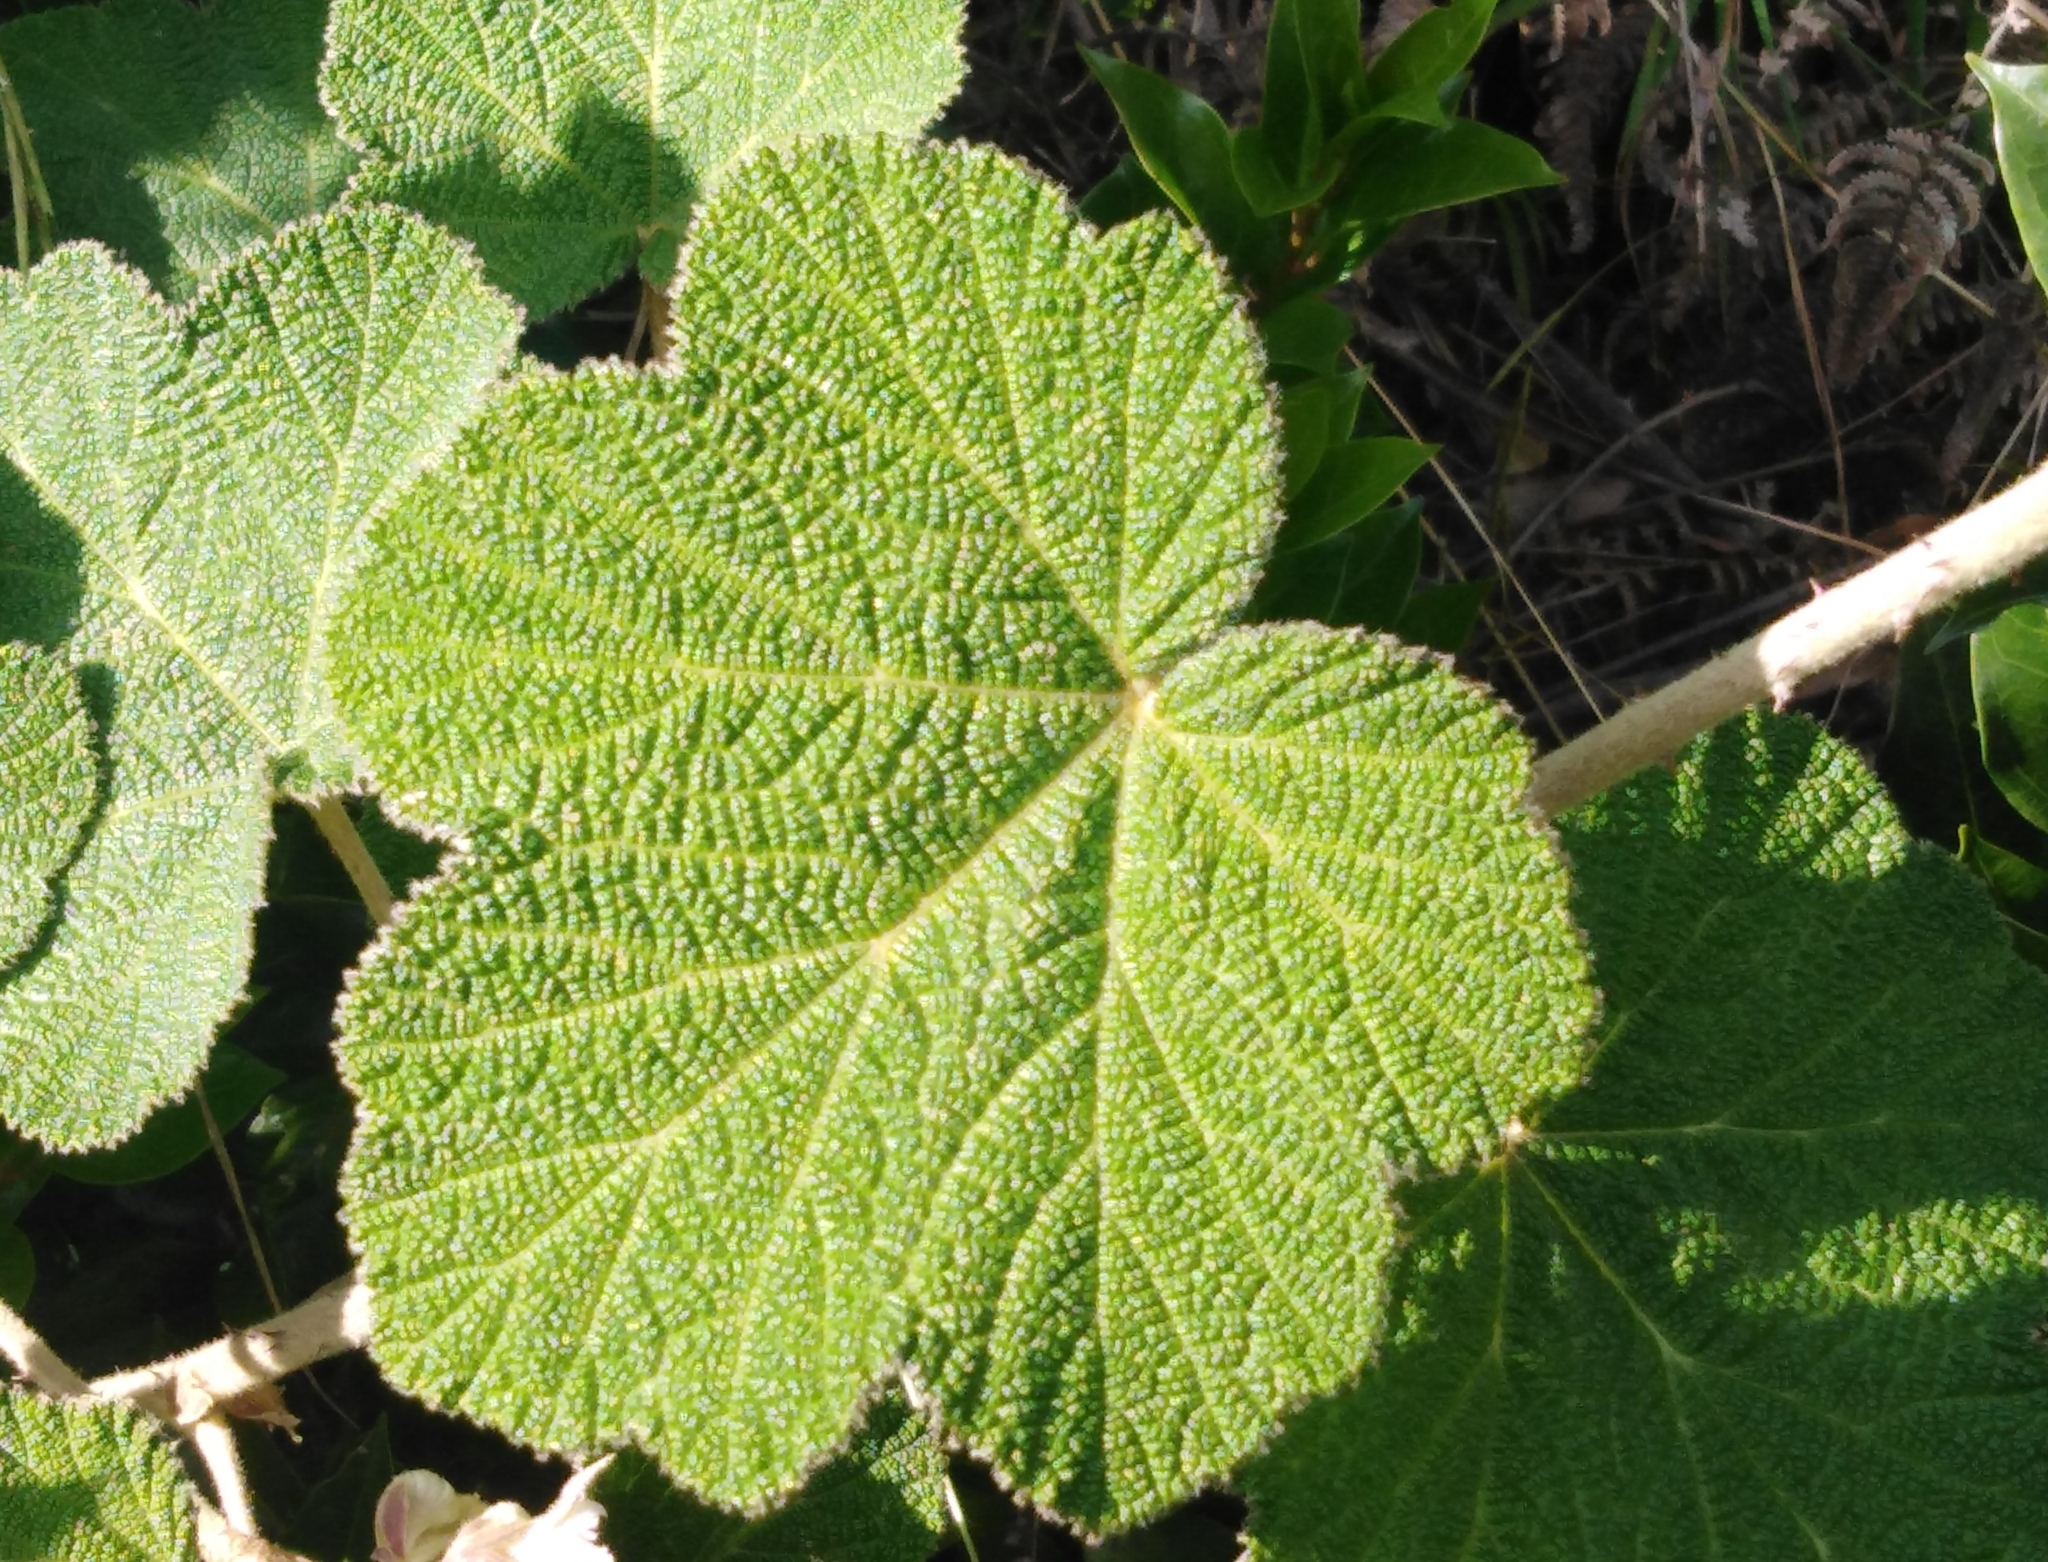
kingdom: Plantae
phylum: Tracheophyta
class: Magnoliopsida
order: Rosales
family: Rosaceae
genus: Rubus
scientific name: Rubus fairholmianus
